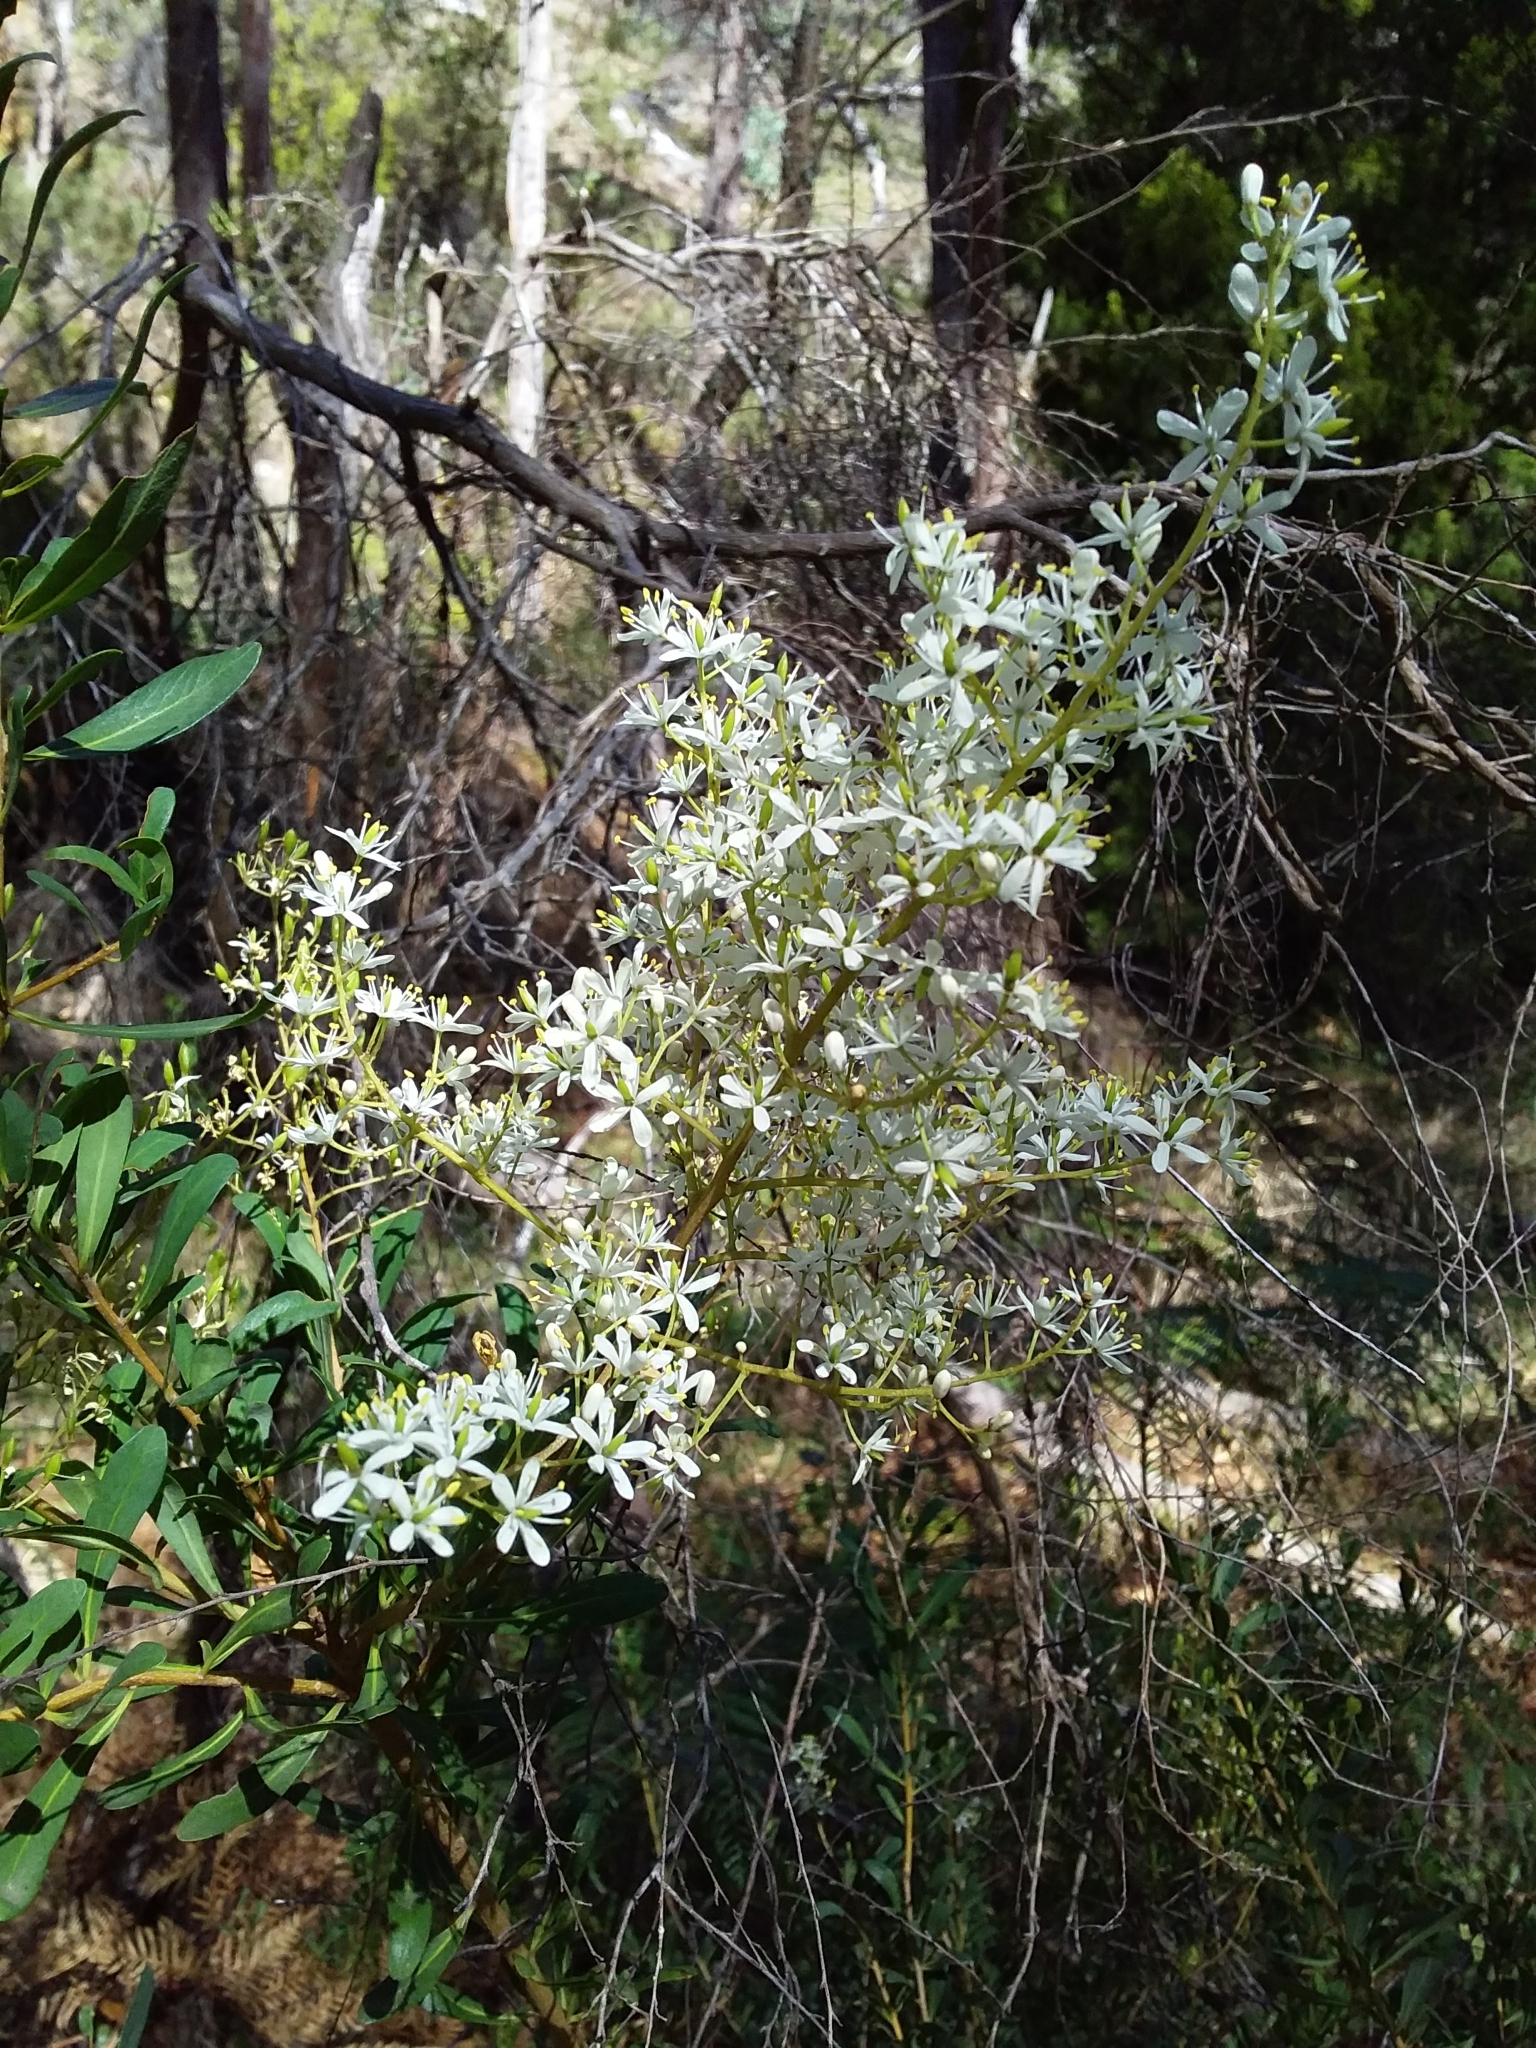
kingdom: Plantae
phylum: Tracheophyta
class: Magnoliopsida
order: Apiales
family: Pittosporaceae
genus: Bursaria
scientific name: Bursaria spinosa
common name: Australian blackthorn
